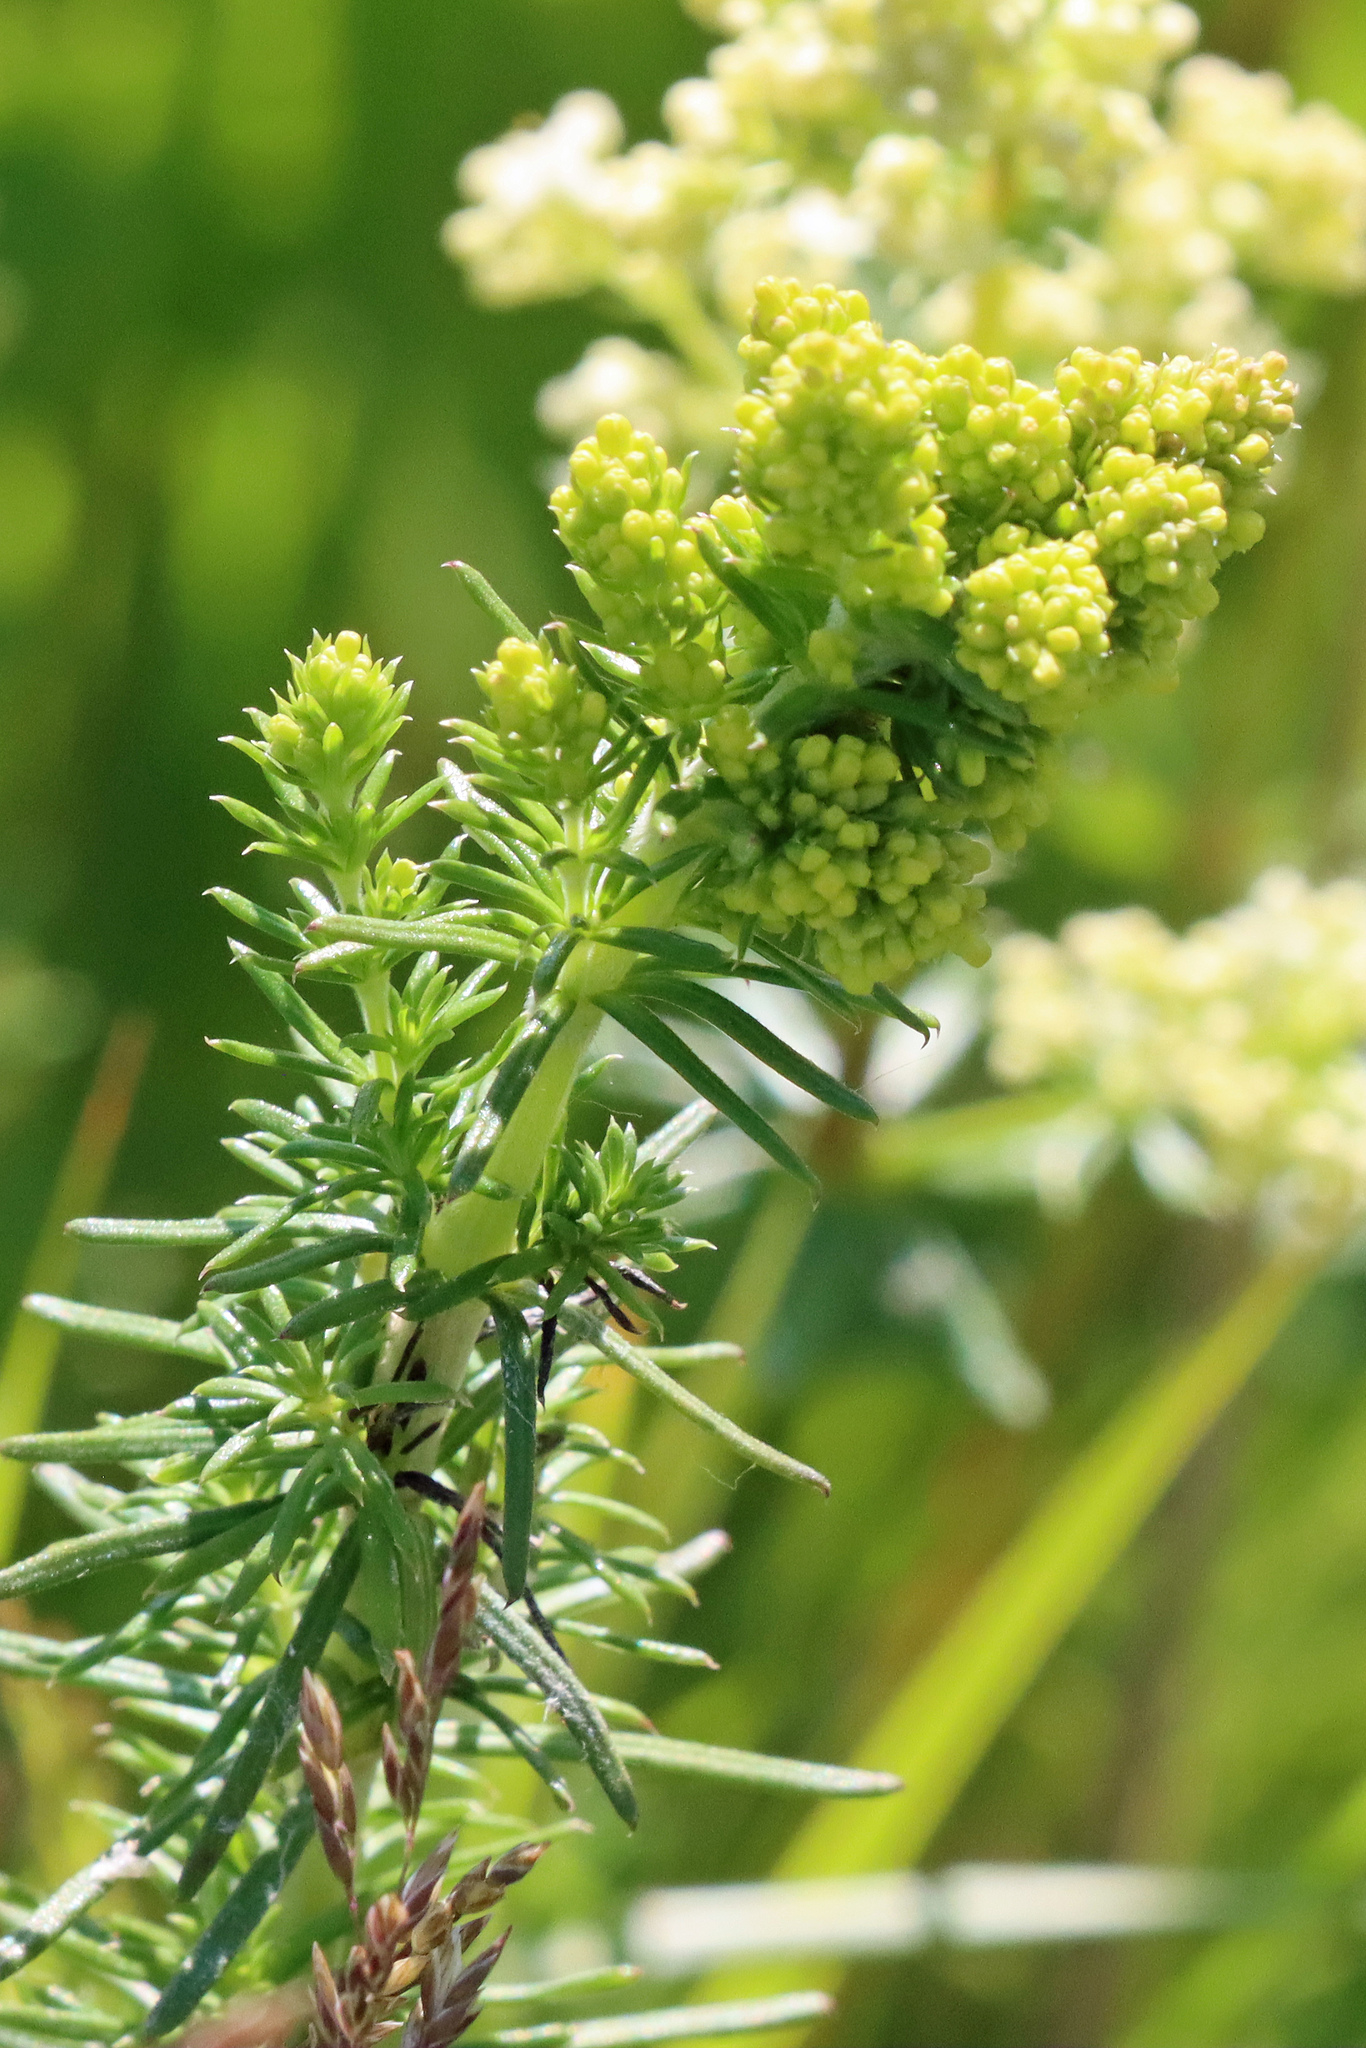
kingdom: Plantae
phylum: Tracheophyta
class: Magnoliopsida
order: Gentianales
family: Rubiaceae
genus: Galium
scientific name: Galium verum
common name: Lady's bedstraw
